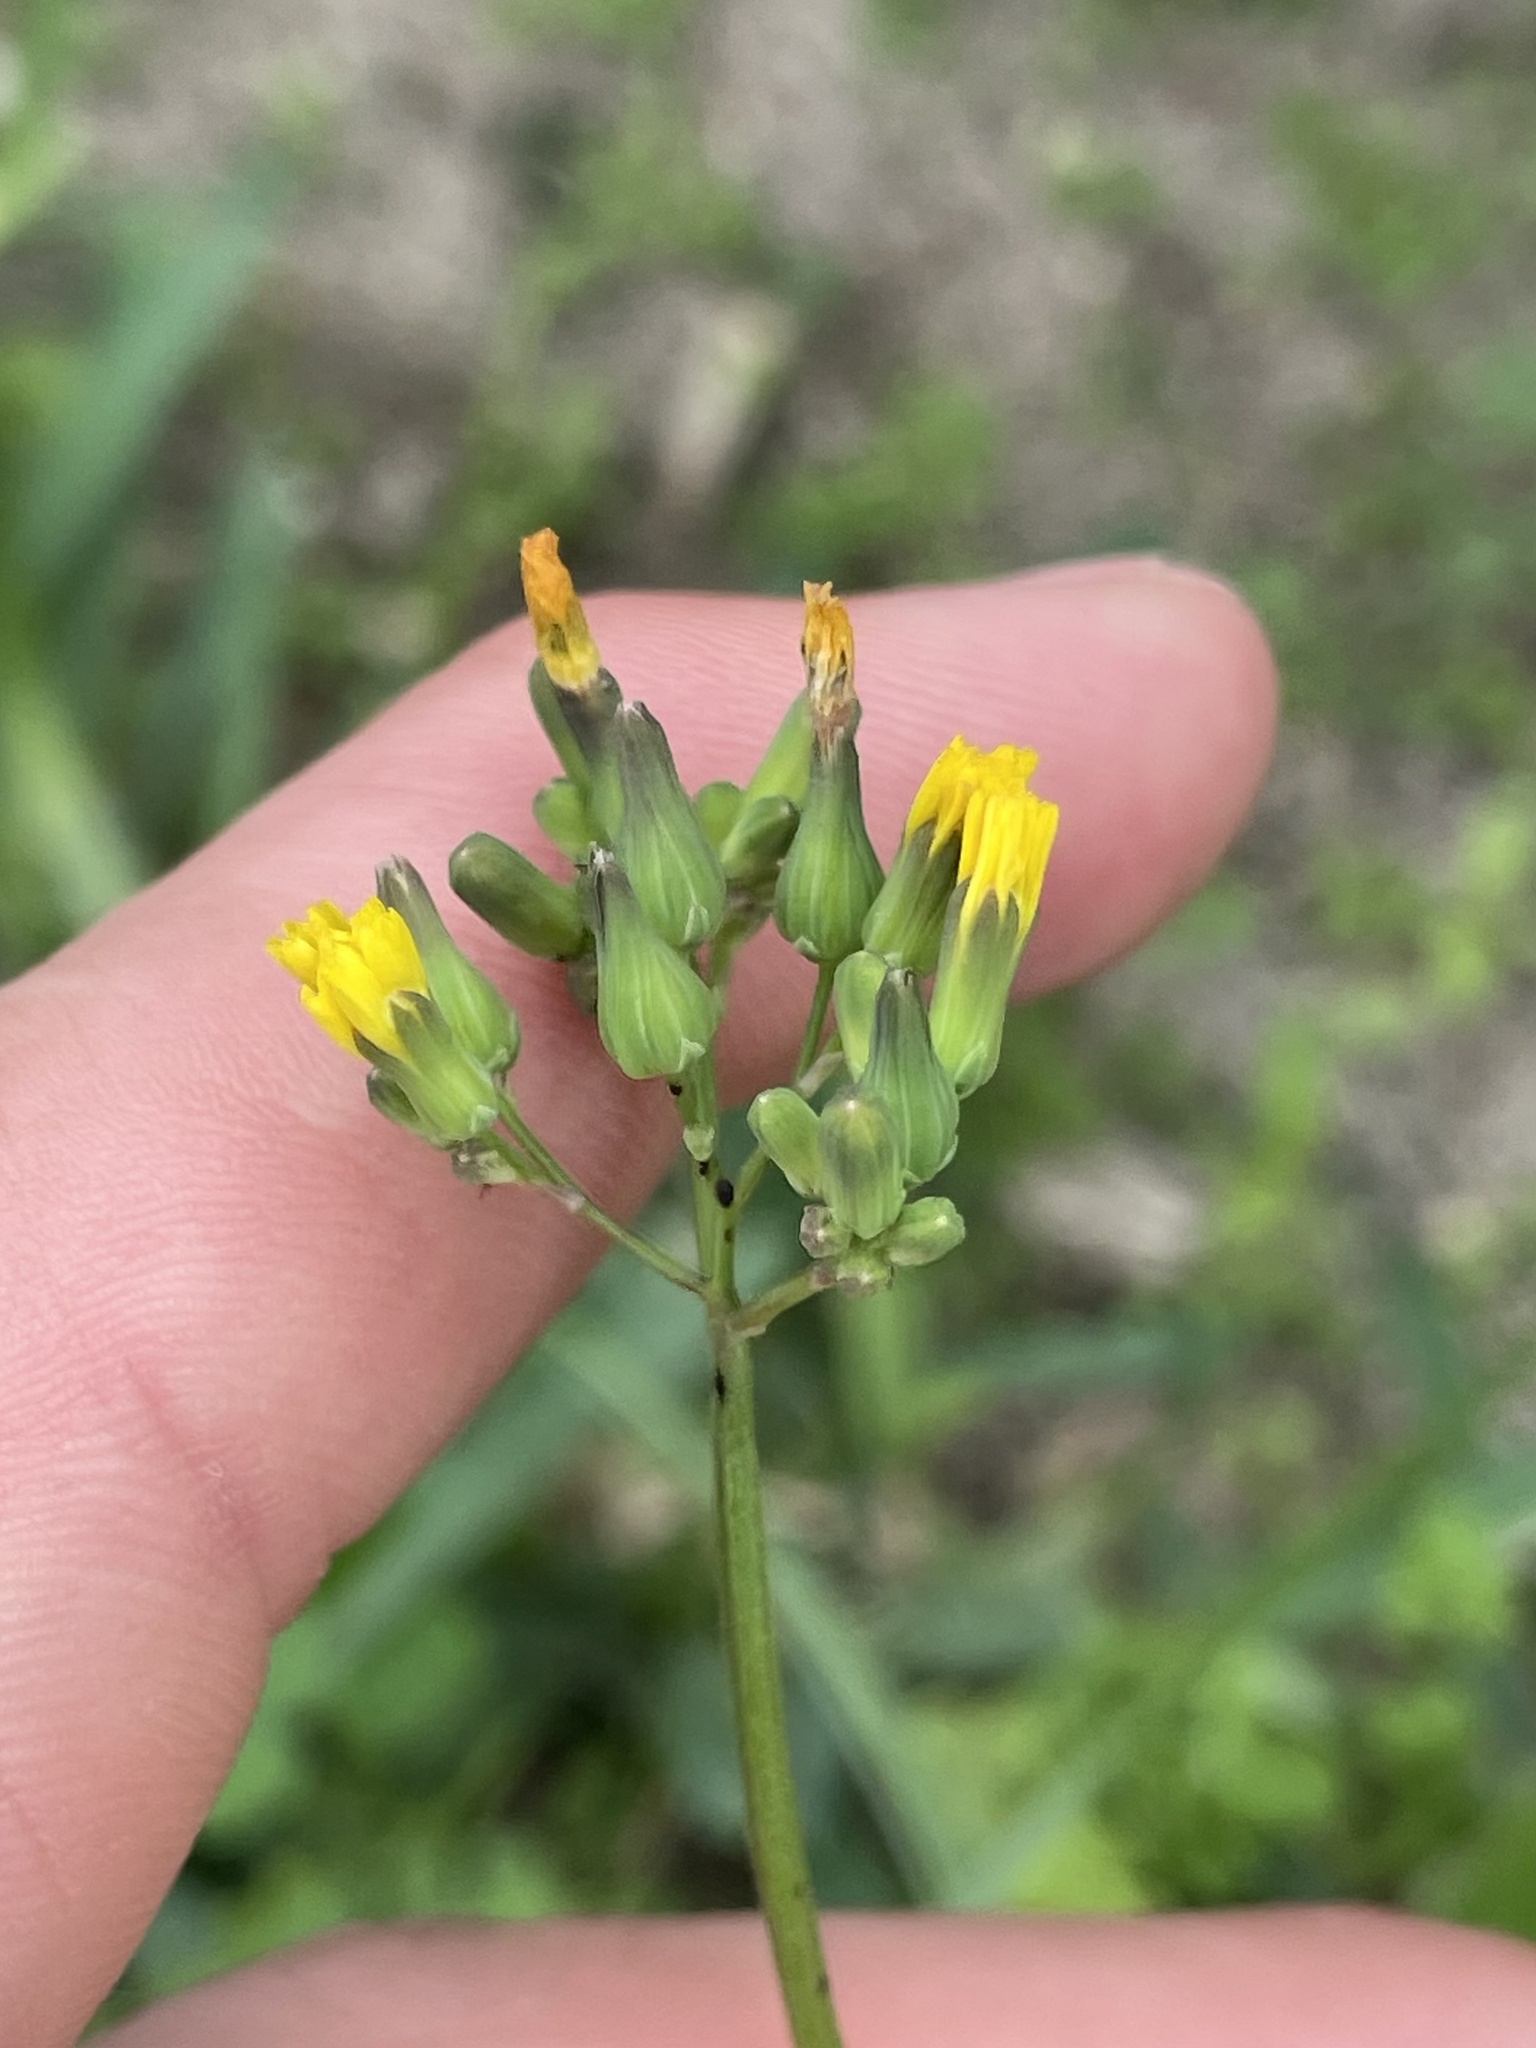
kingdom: Plantae
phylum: Tracheophyta
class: Magnoliopsida
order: Asterales
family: Asteraceae
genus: Youngia
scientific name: Youngia japonica
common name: Oriental false hawksbeard
